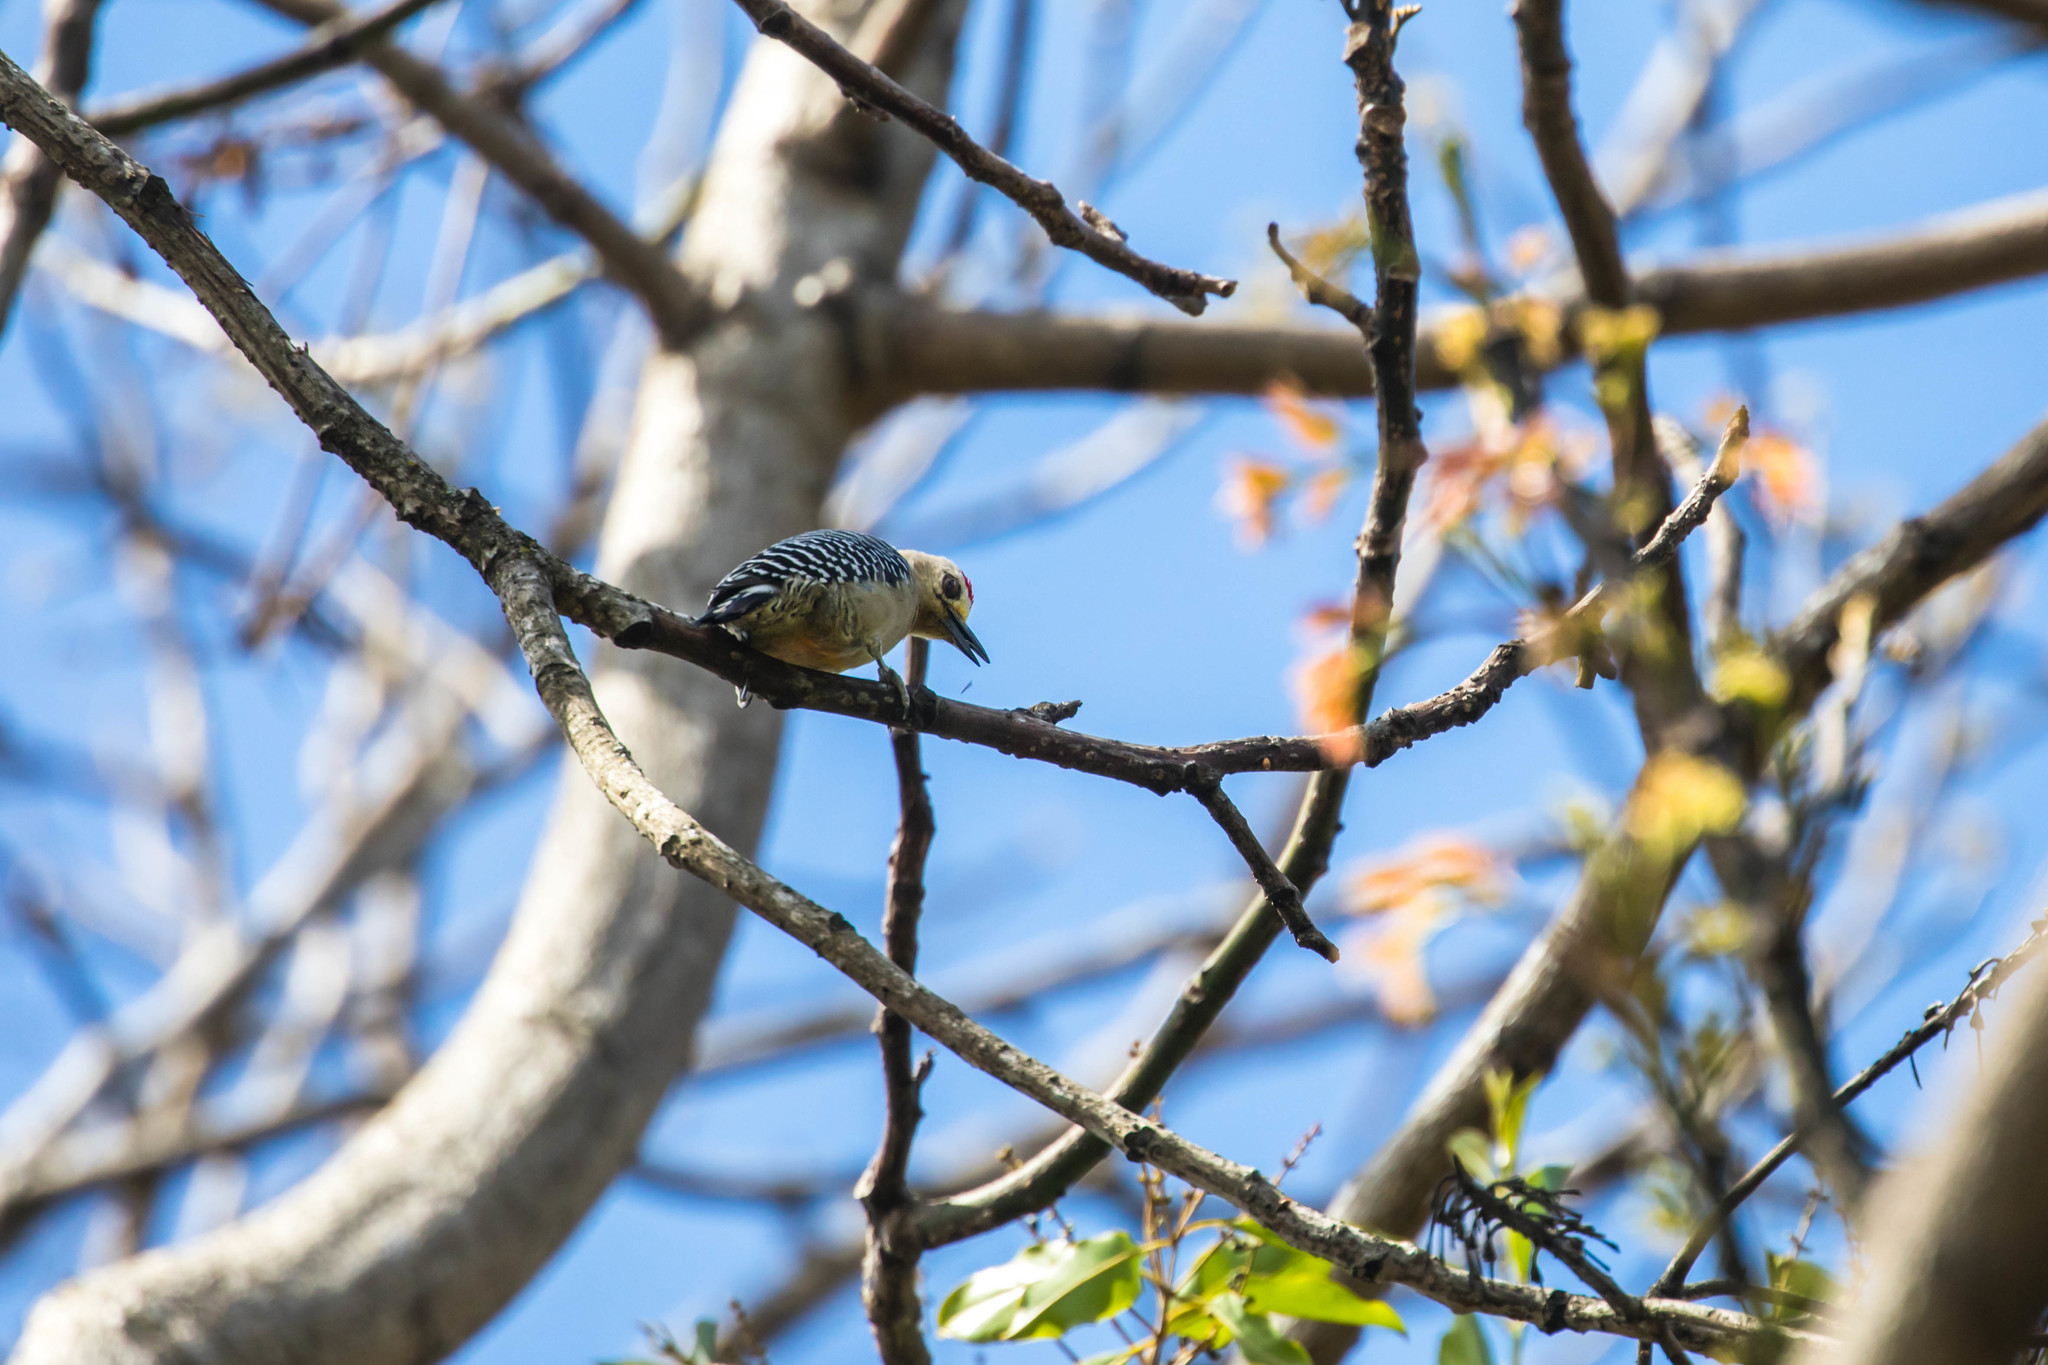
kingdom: Animalia
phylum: Chordata
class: Aves
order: Piciformes
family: Picidae
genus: Melanerpes
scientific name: Melanerpes hoffmannii
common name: Hoffmann's woodpecker
